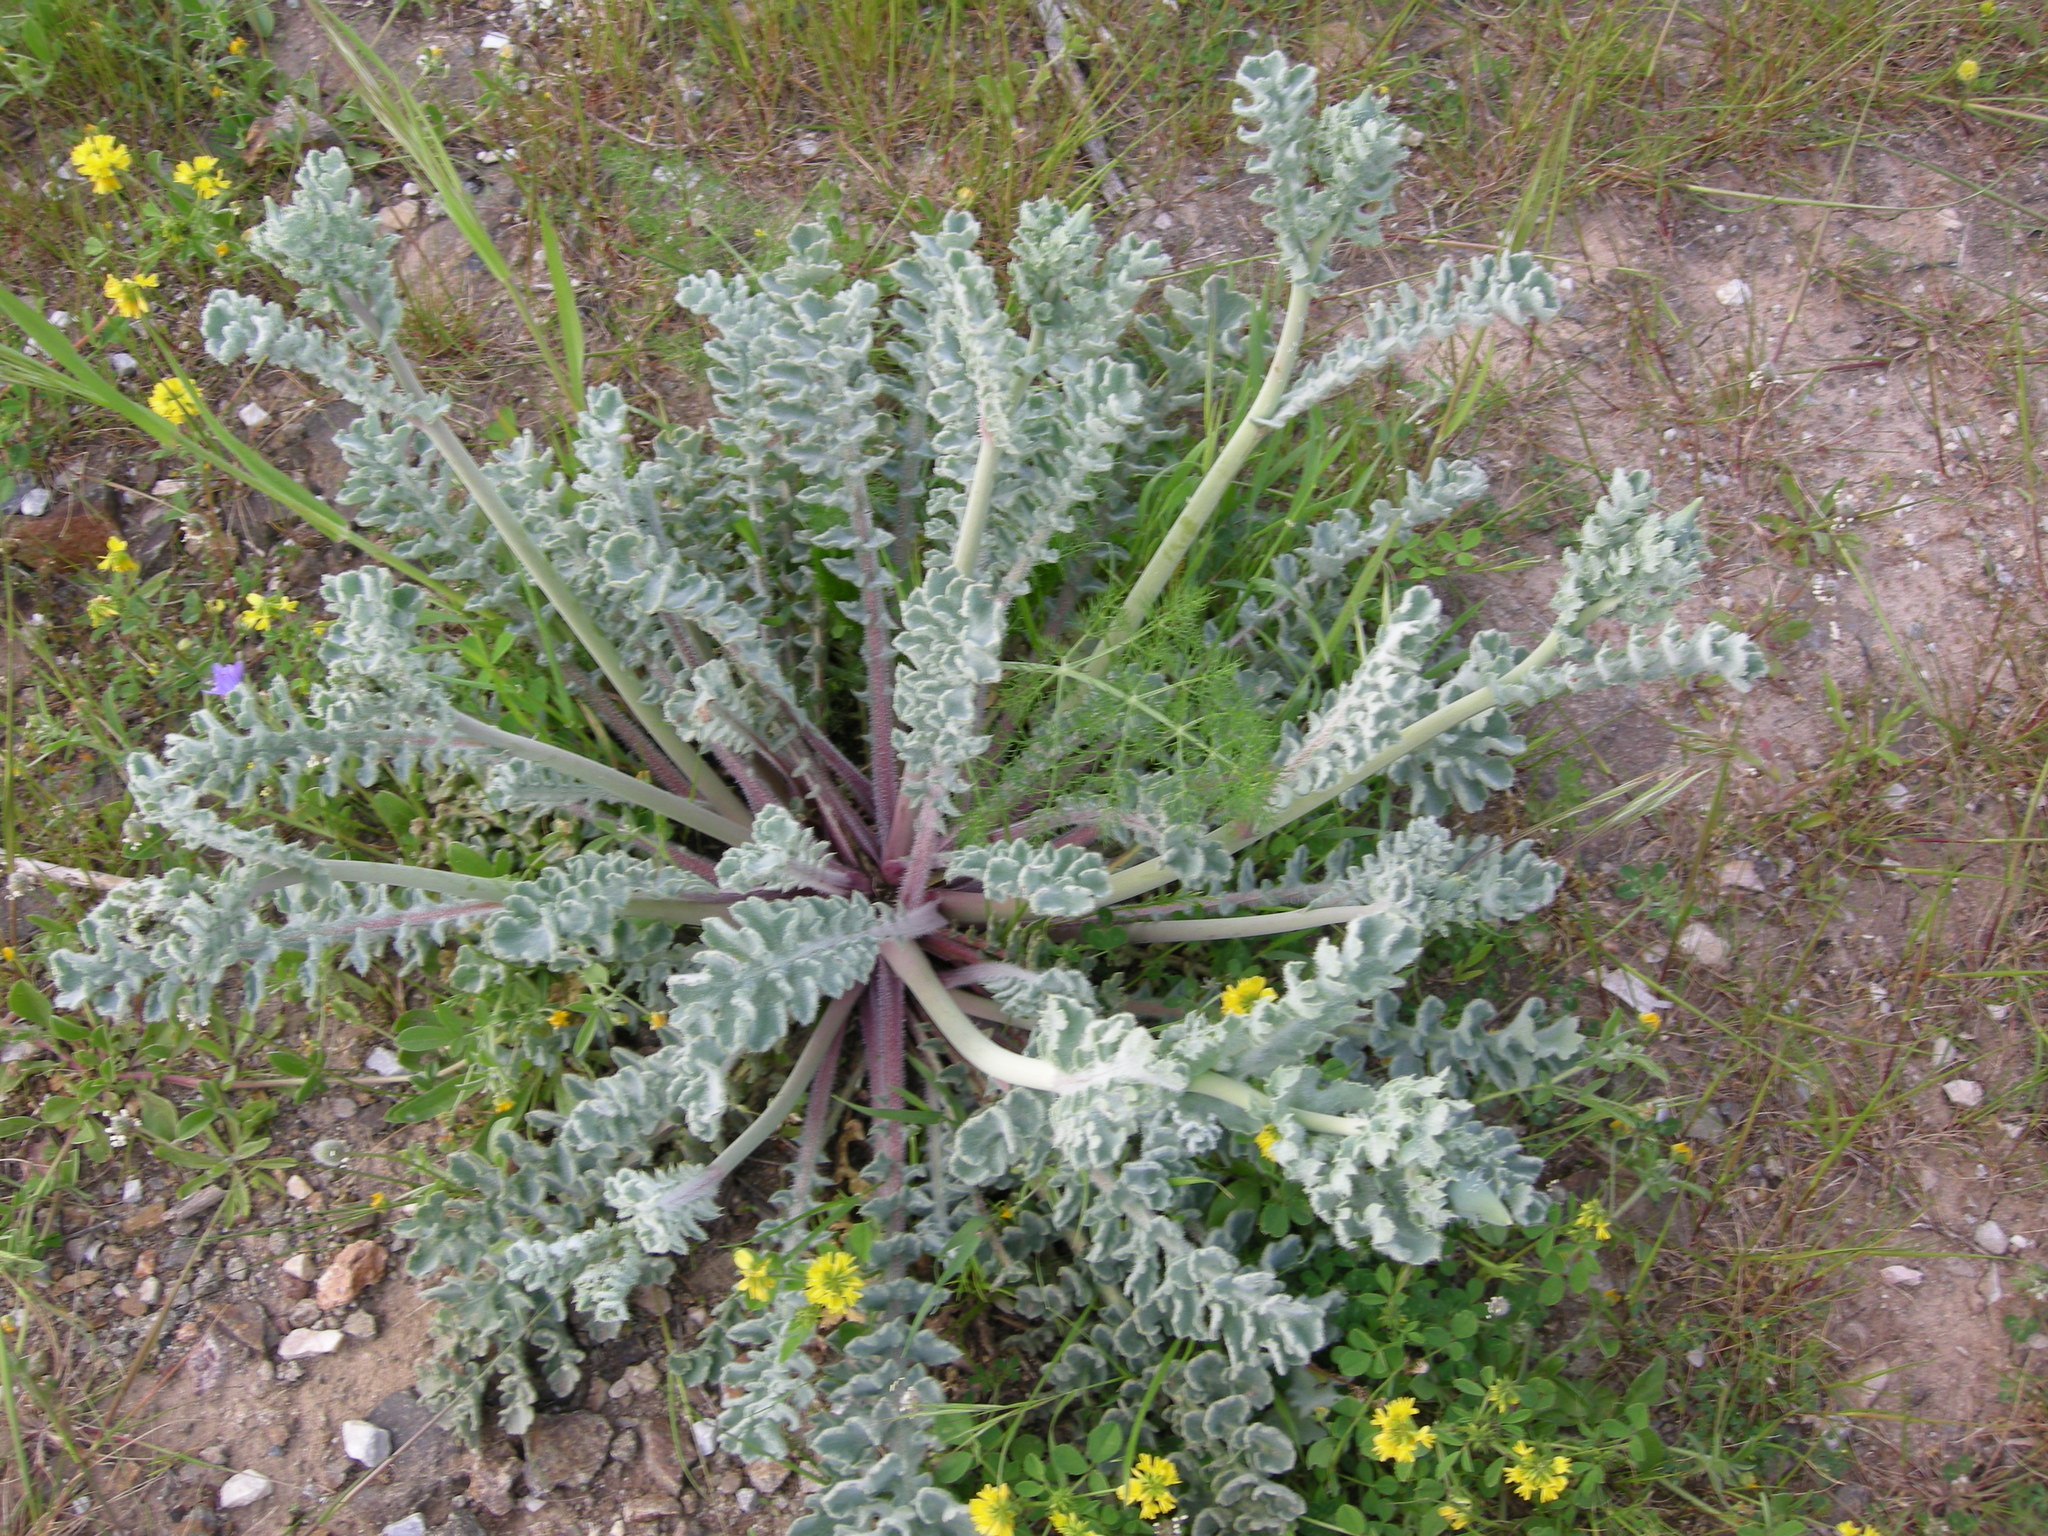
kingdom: Plantae
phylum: Tracheophyta
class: Magnoliopsida
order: Ranunculales
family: Papaveraceae
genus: Glaucium
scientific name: Glaucium flavum
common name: Yellow horned-poppy
